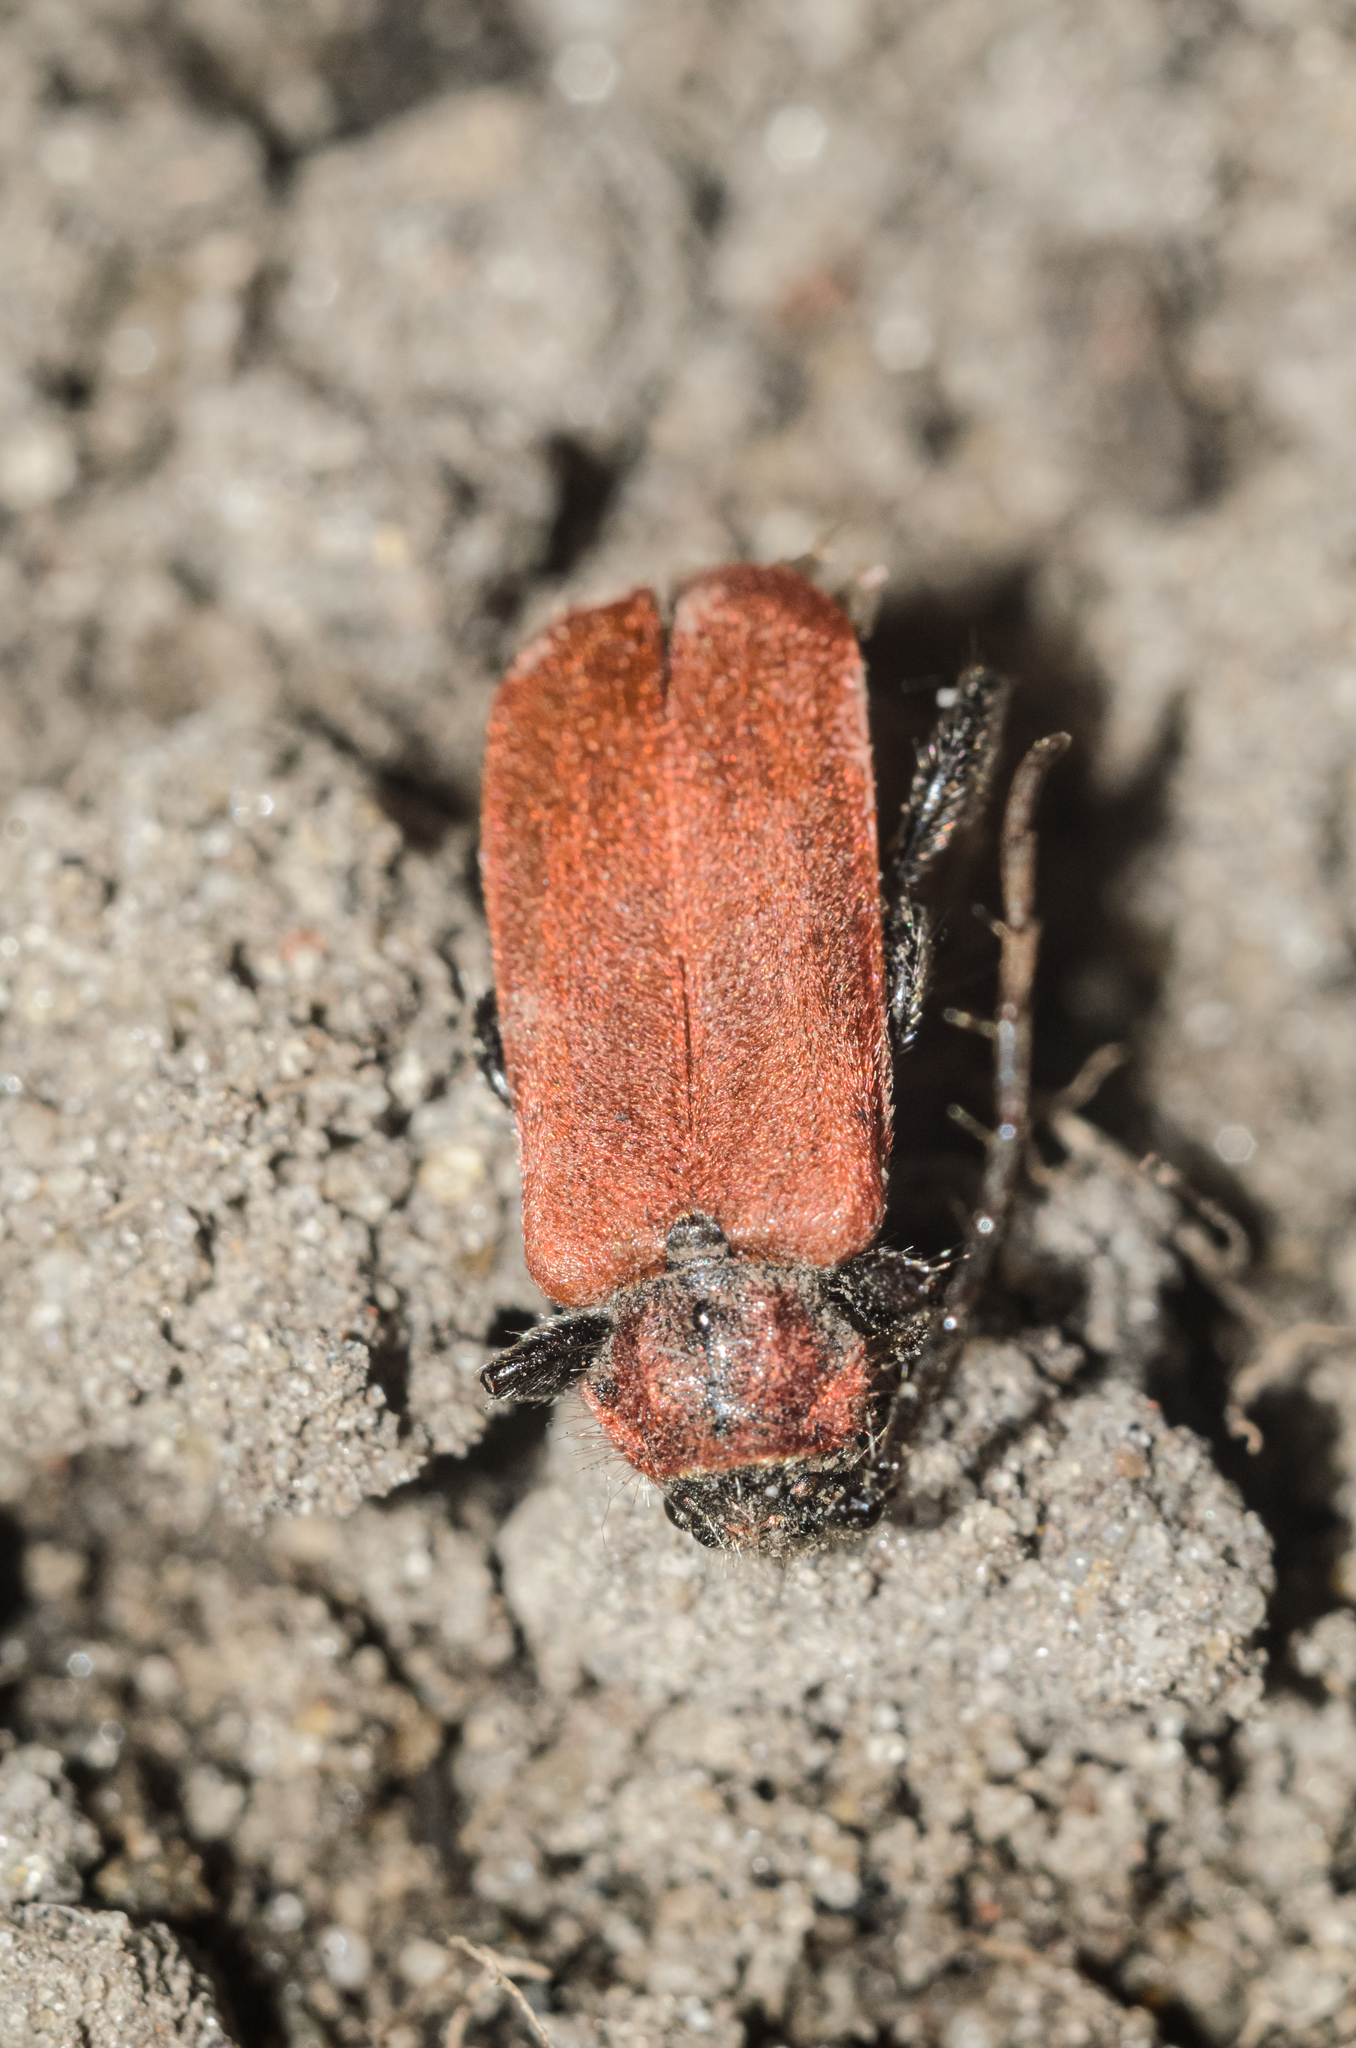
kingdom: Animalia
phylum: Arthropoda
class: Insecta
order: Coleoptera
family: Cerambycidae
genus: Pyrrhidium
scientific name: Pyrrhidium sanguineum
